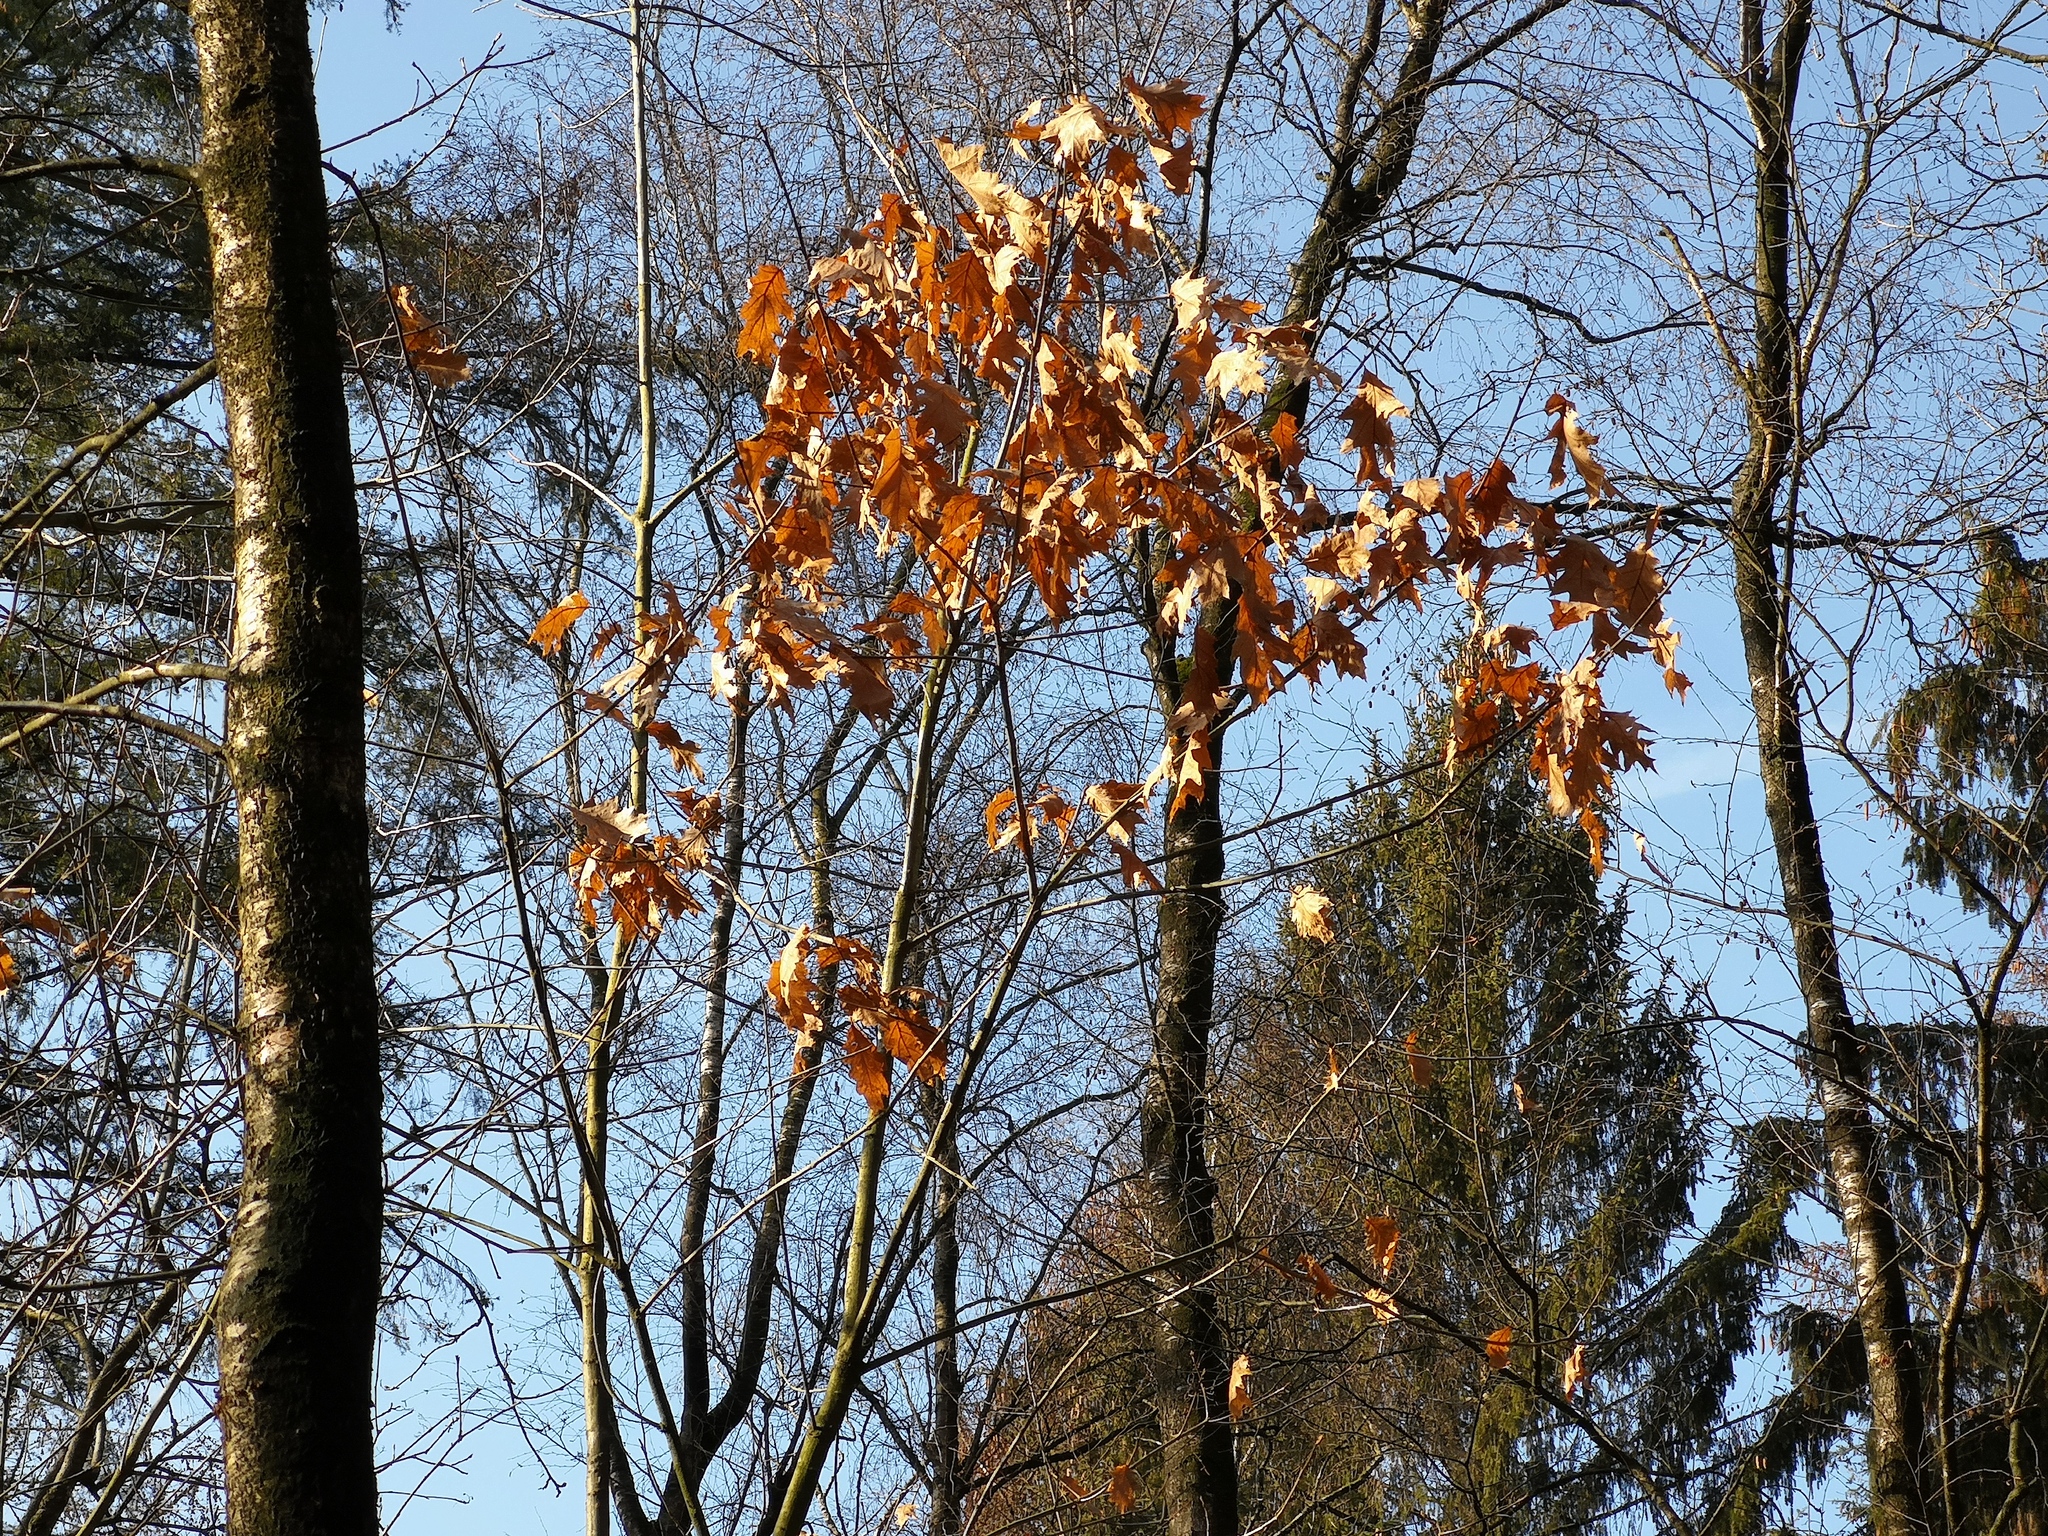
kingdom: Plantae
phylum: Tracheophyta
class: Magnoliopsida
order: Fagales
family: Fagaceae
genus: Quercus
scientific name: Quercus rubra
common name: Red oak
